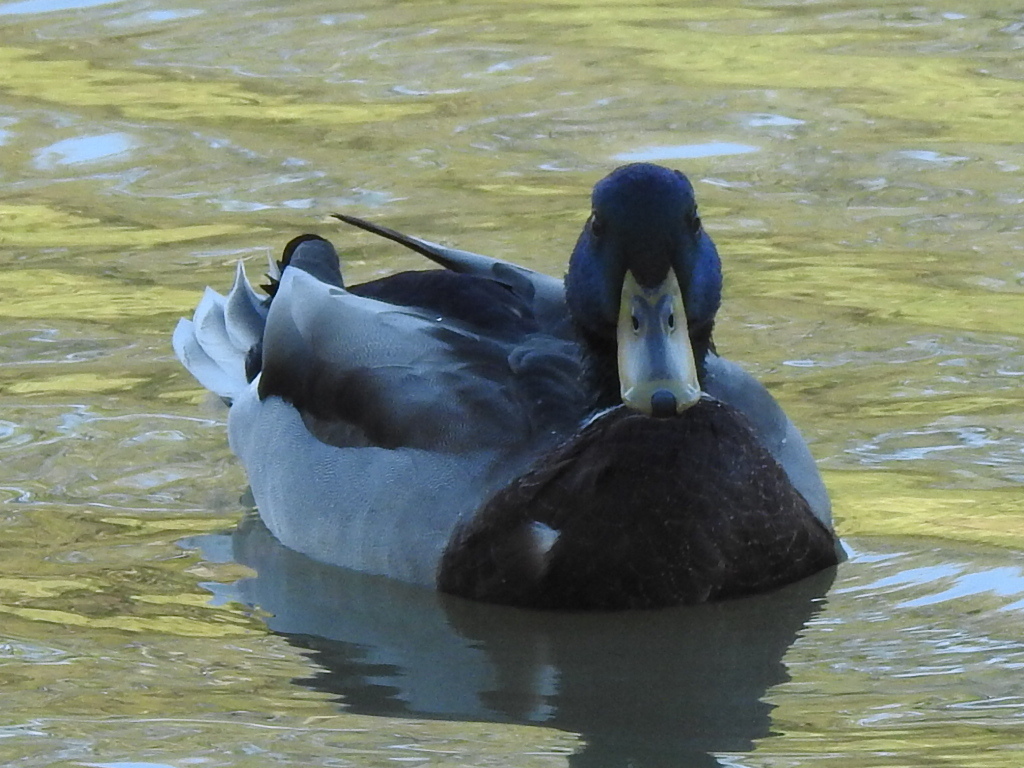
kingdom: Animalia
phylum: Chordata
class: Aves
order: Anseriformes
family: Anatidae
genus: Anas
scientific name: Anas platyrhynchos
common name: Mallard
